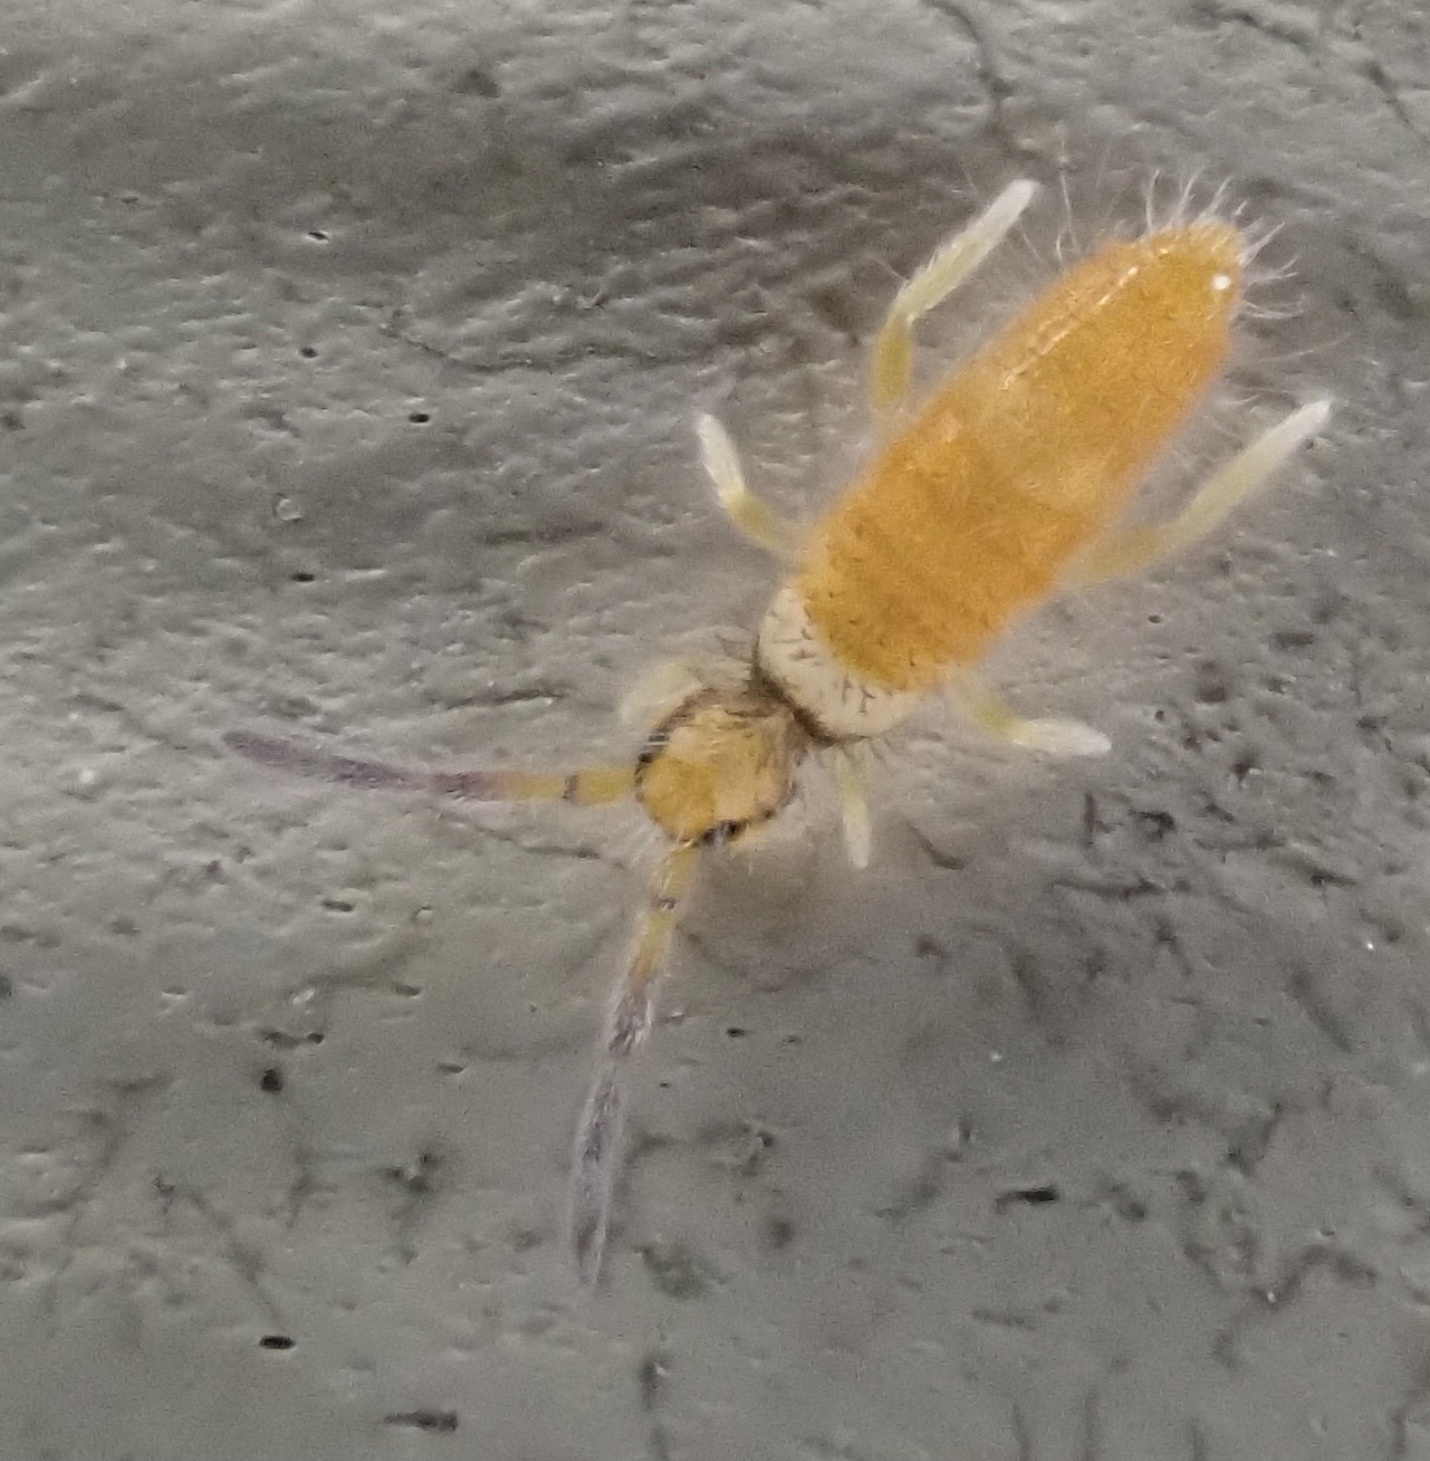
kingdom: Animalia
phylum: Arthropoda
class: Collembola
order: Entomobryomorpha
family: Entomobryidae
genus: Entomobrya
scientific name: Entomobrya atrocincta
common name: Springtail
